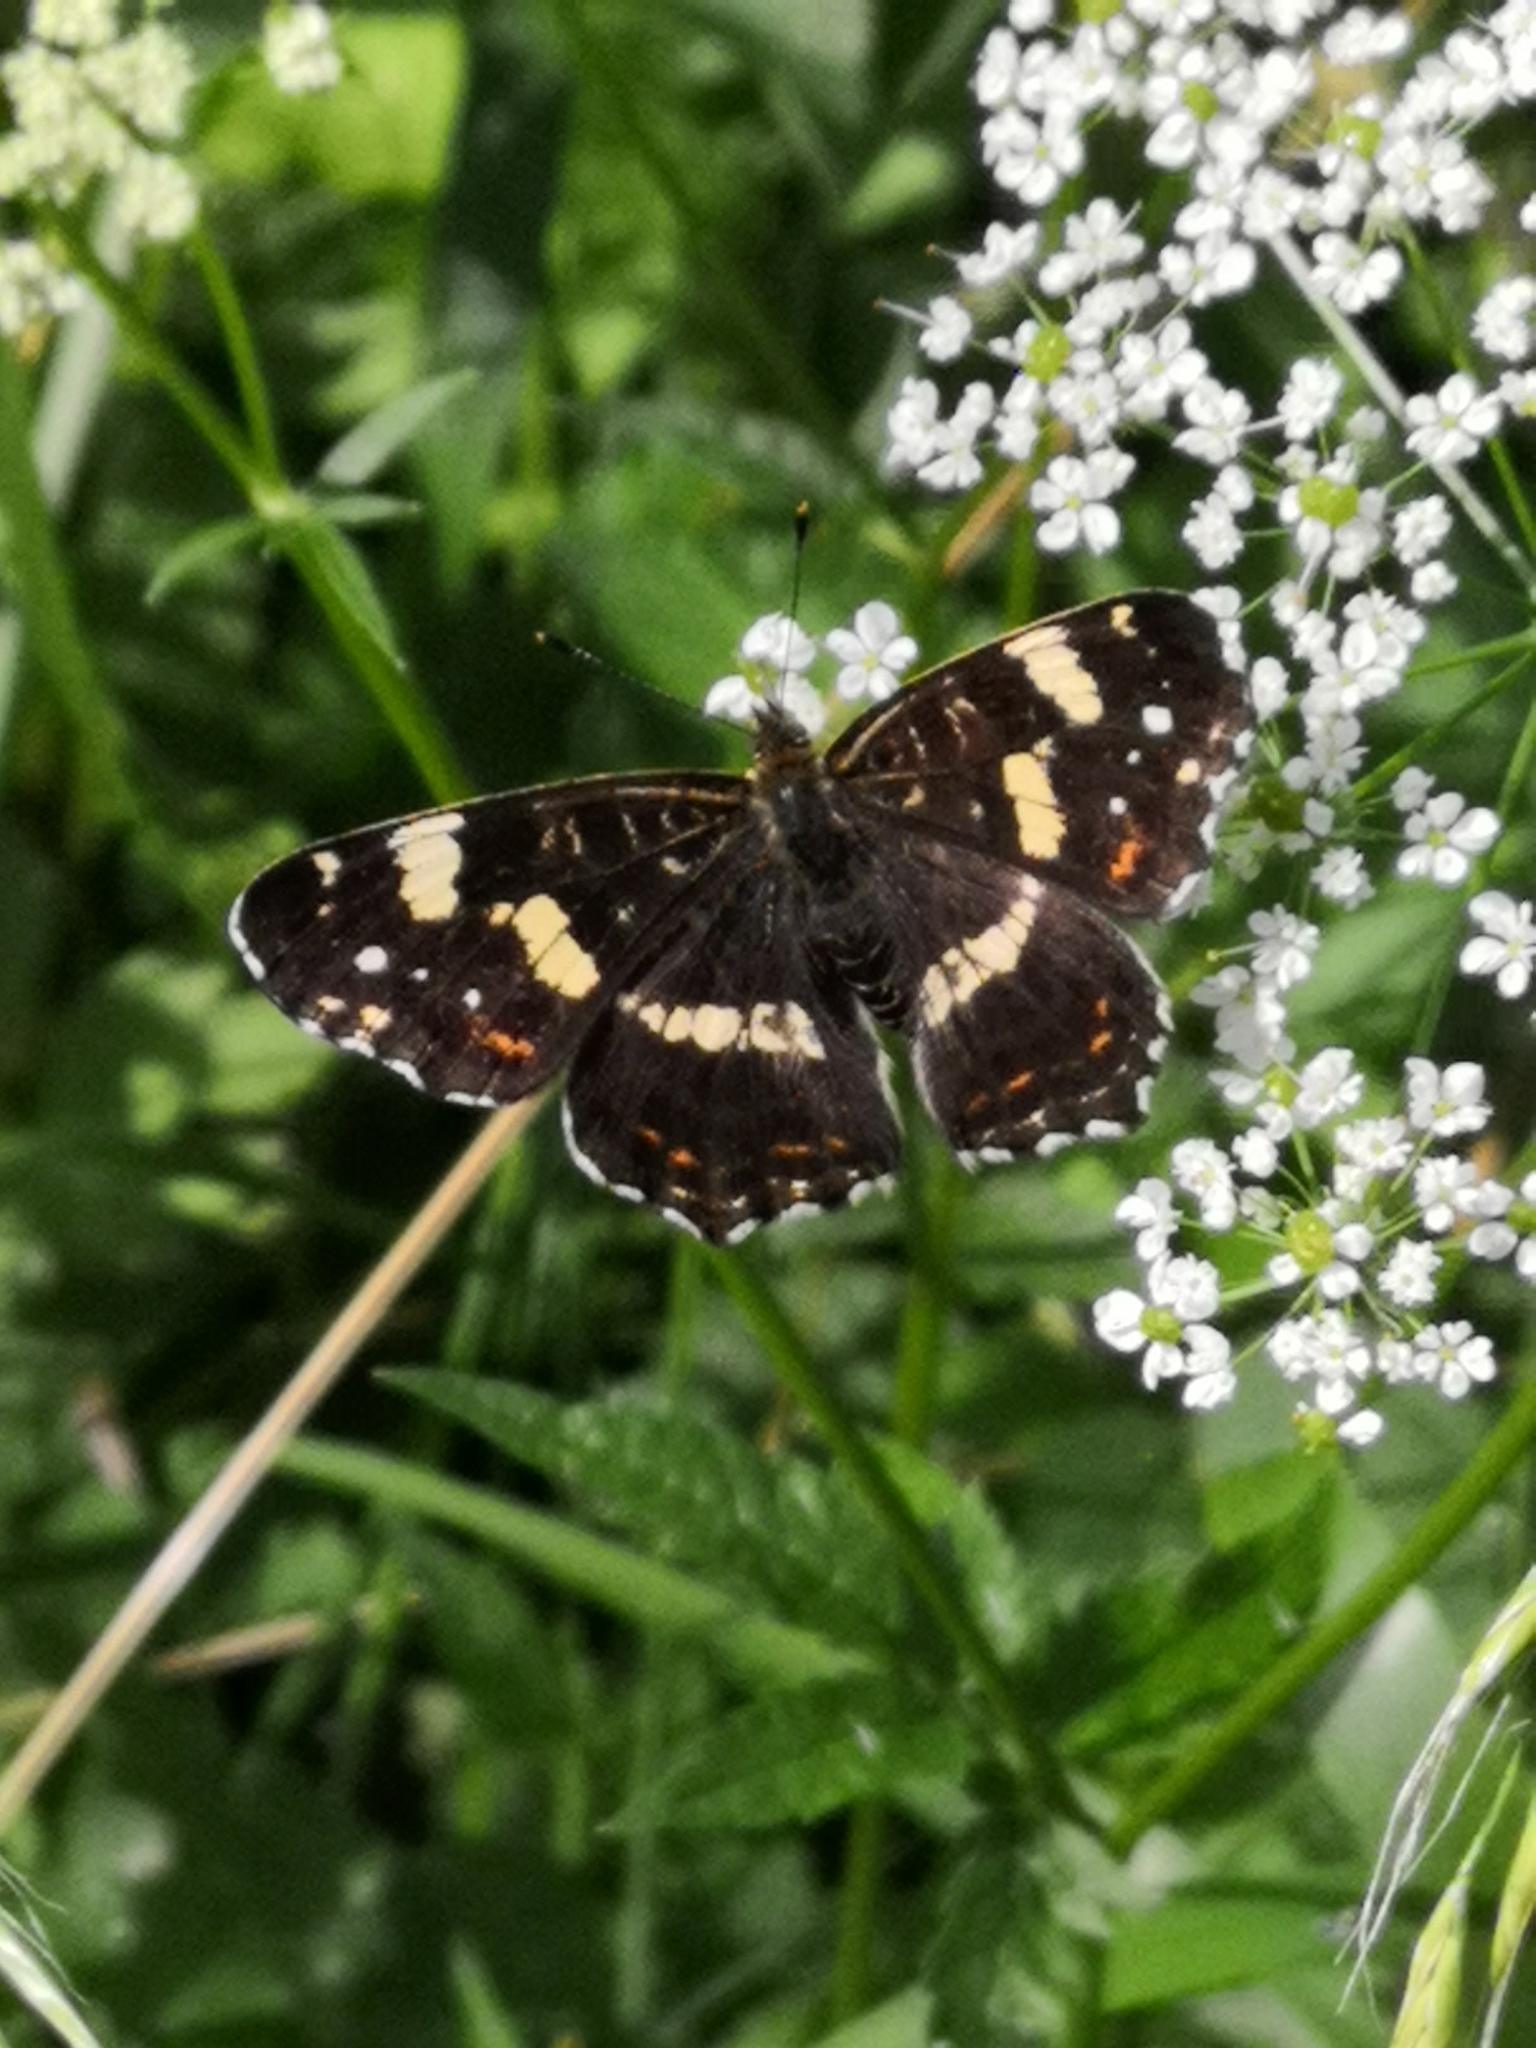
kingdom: Animalia
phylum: Arthropoda
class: Insecta
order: Lepidoptera
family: Nymphalidae
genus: Araschnia
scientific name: Araschnia levana
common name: Map butterfly
